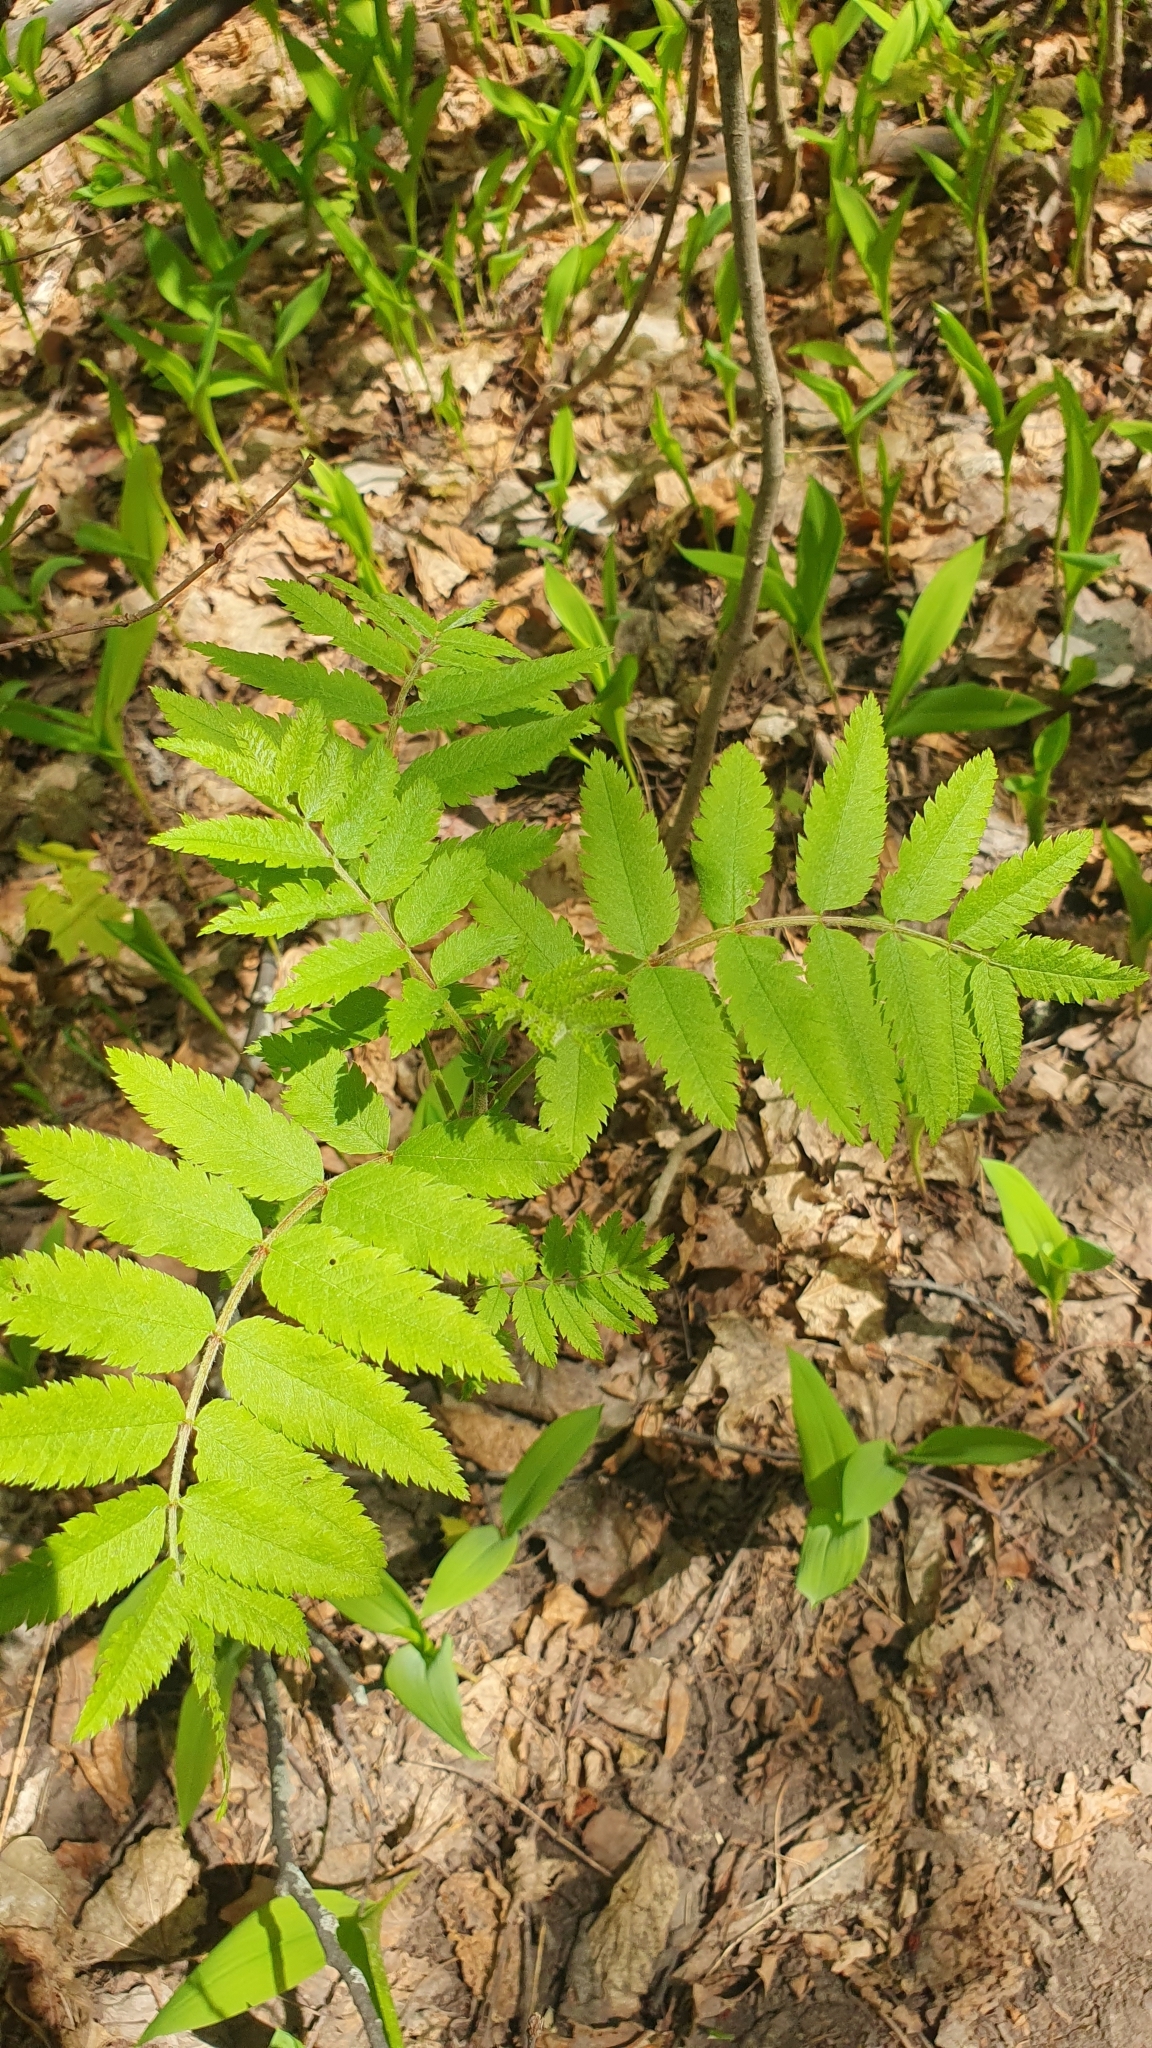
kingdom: Plantae
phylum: Tracheophyta
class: Magnoliopsida
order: Rosales
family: Rosaceae
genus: Sorbus
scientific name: Sorbus aucuparia
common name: Rowan
